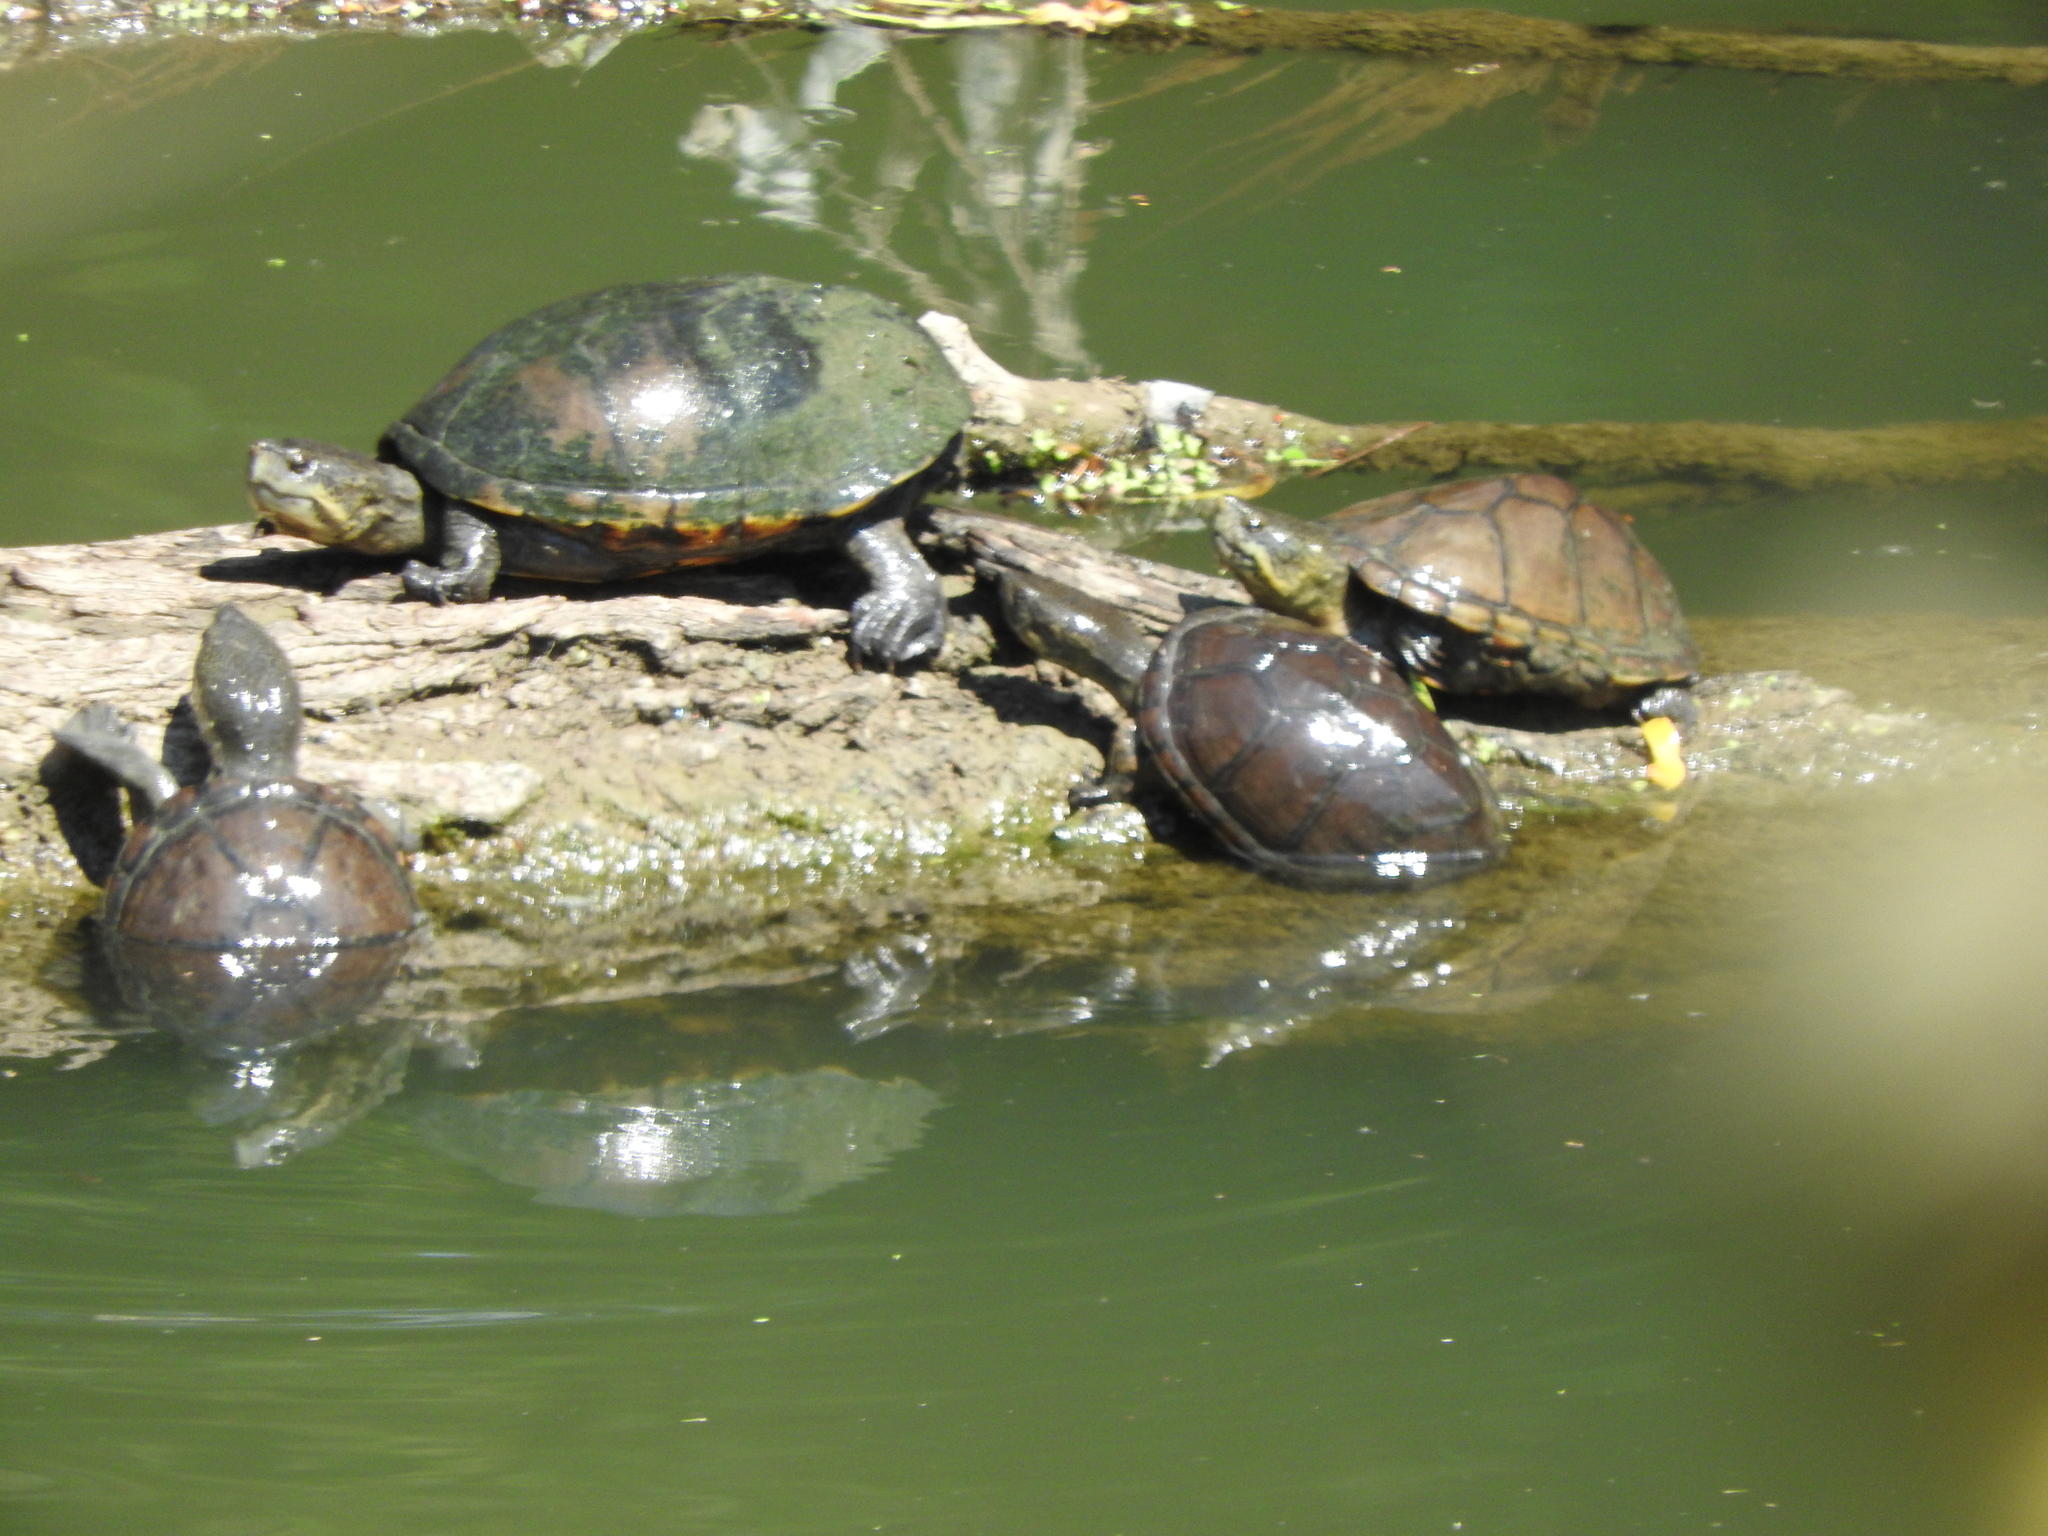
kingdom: Animalia
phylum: Chordata
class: Testudines
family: Kinosternidae
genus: Kinosternon
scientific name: Kinosternon integrum
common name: Mexican mud turtle
